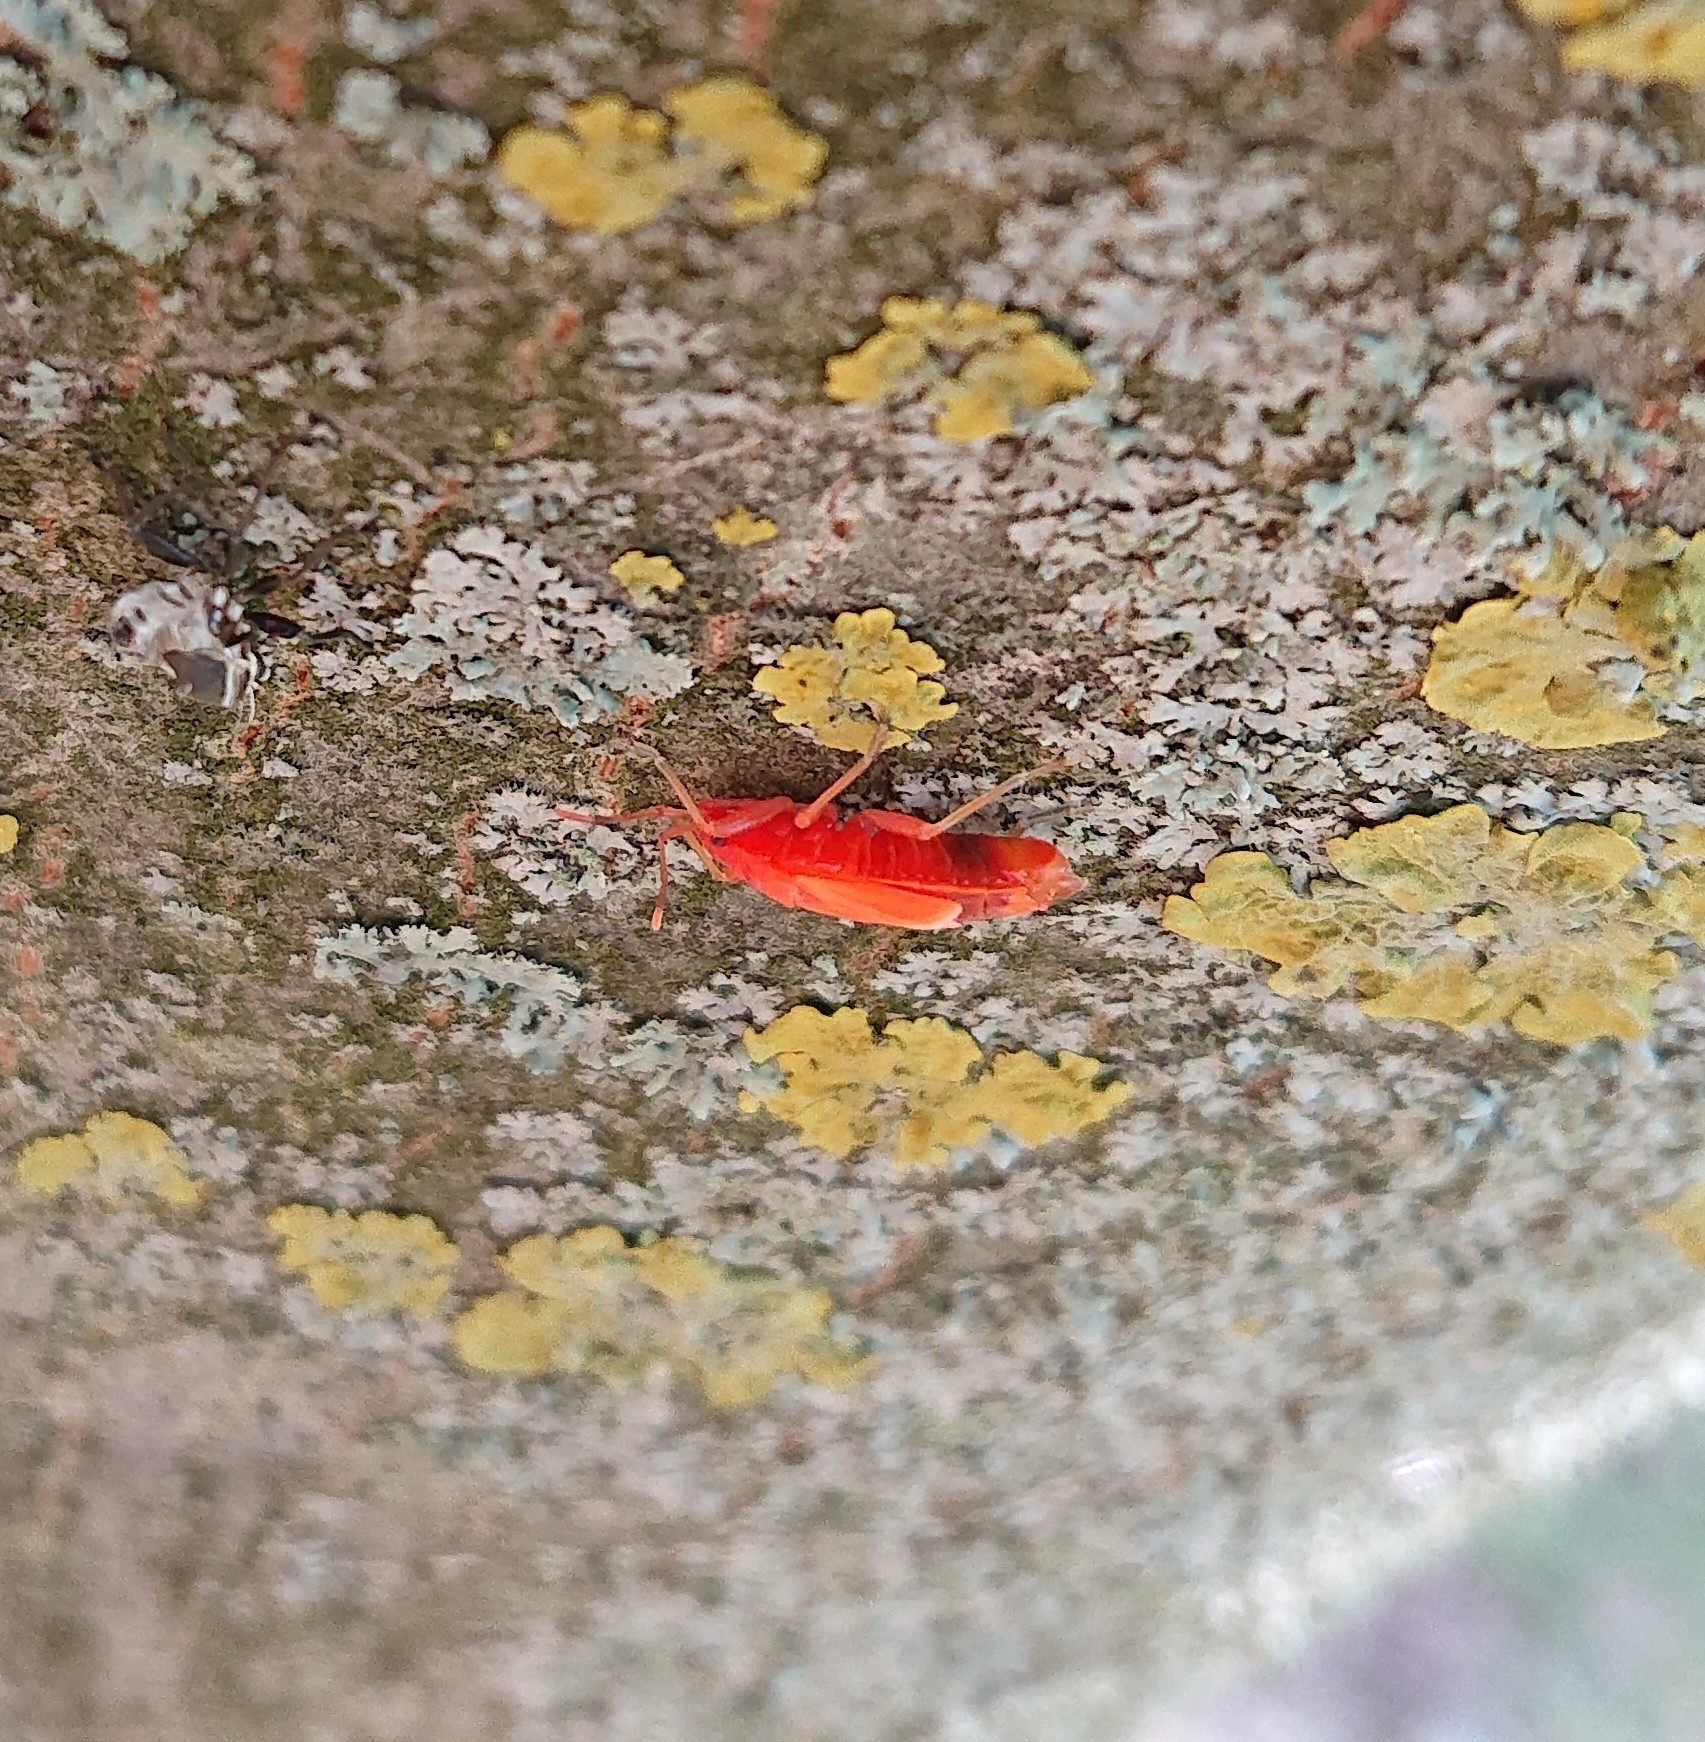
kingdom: Animalia
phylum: Arthropoda
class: Insecta
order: Hemiptera
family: Pyrrhocoridae
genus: Pyrrhocoris
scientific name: Pyrrhocoris apterus
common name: Firebug
